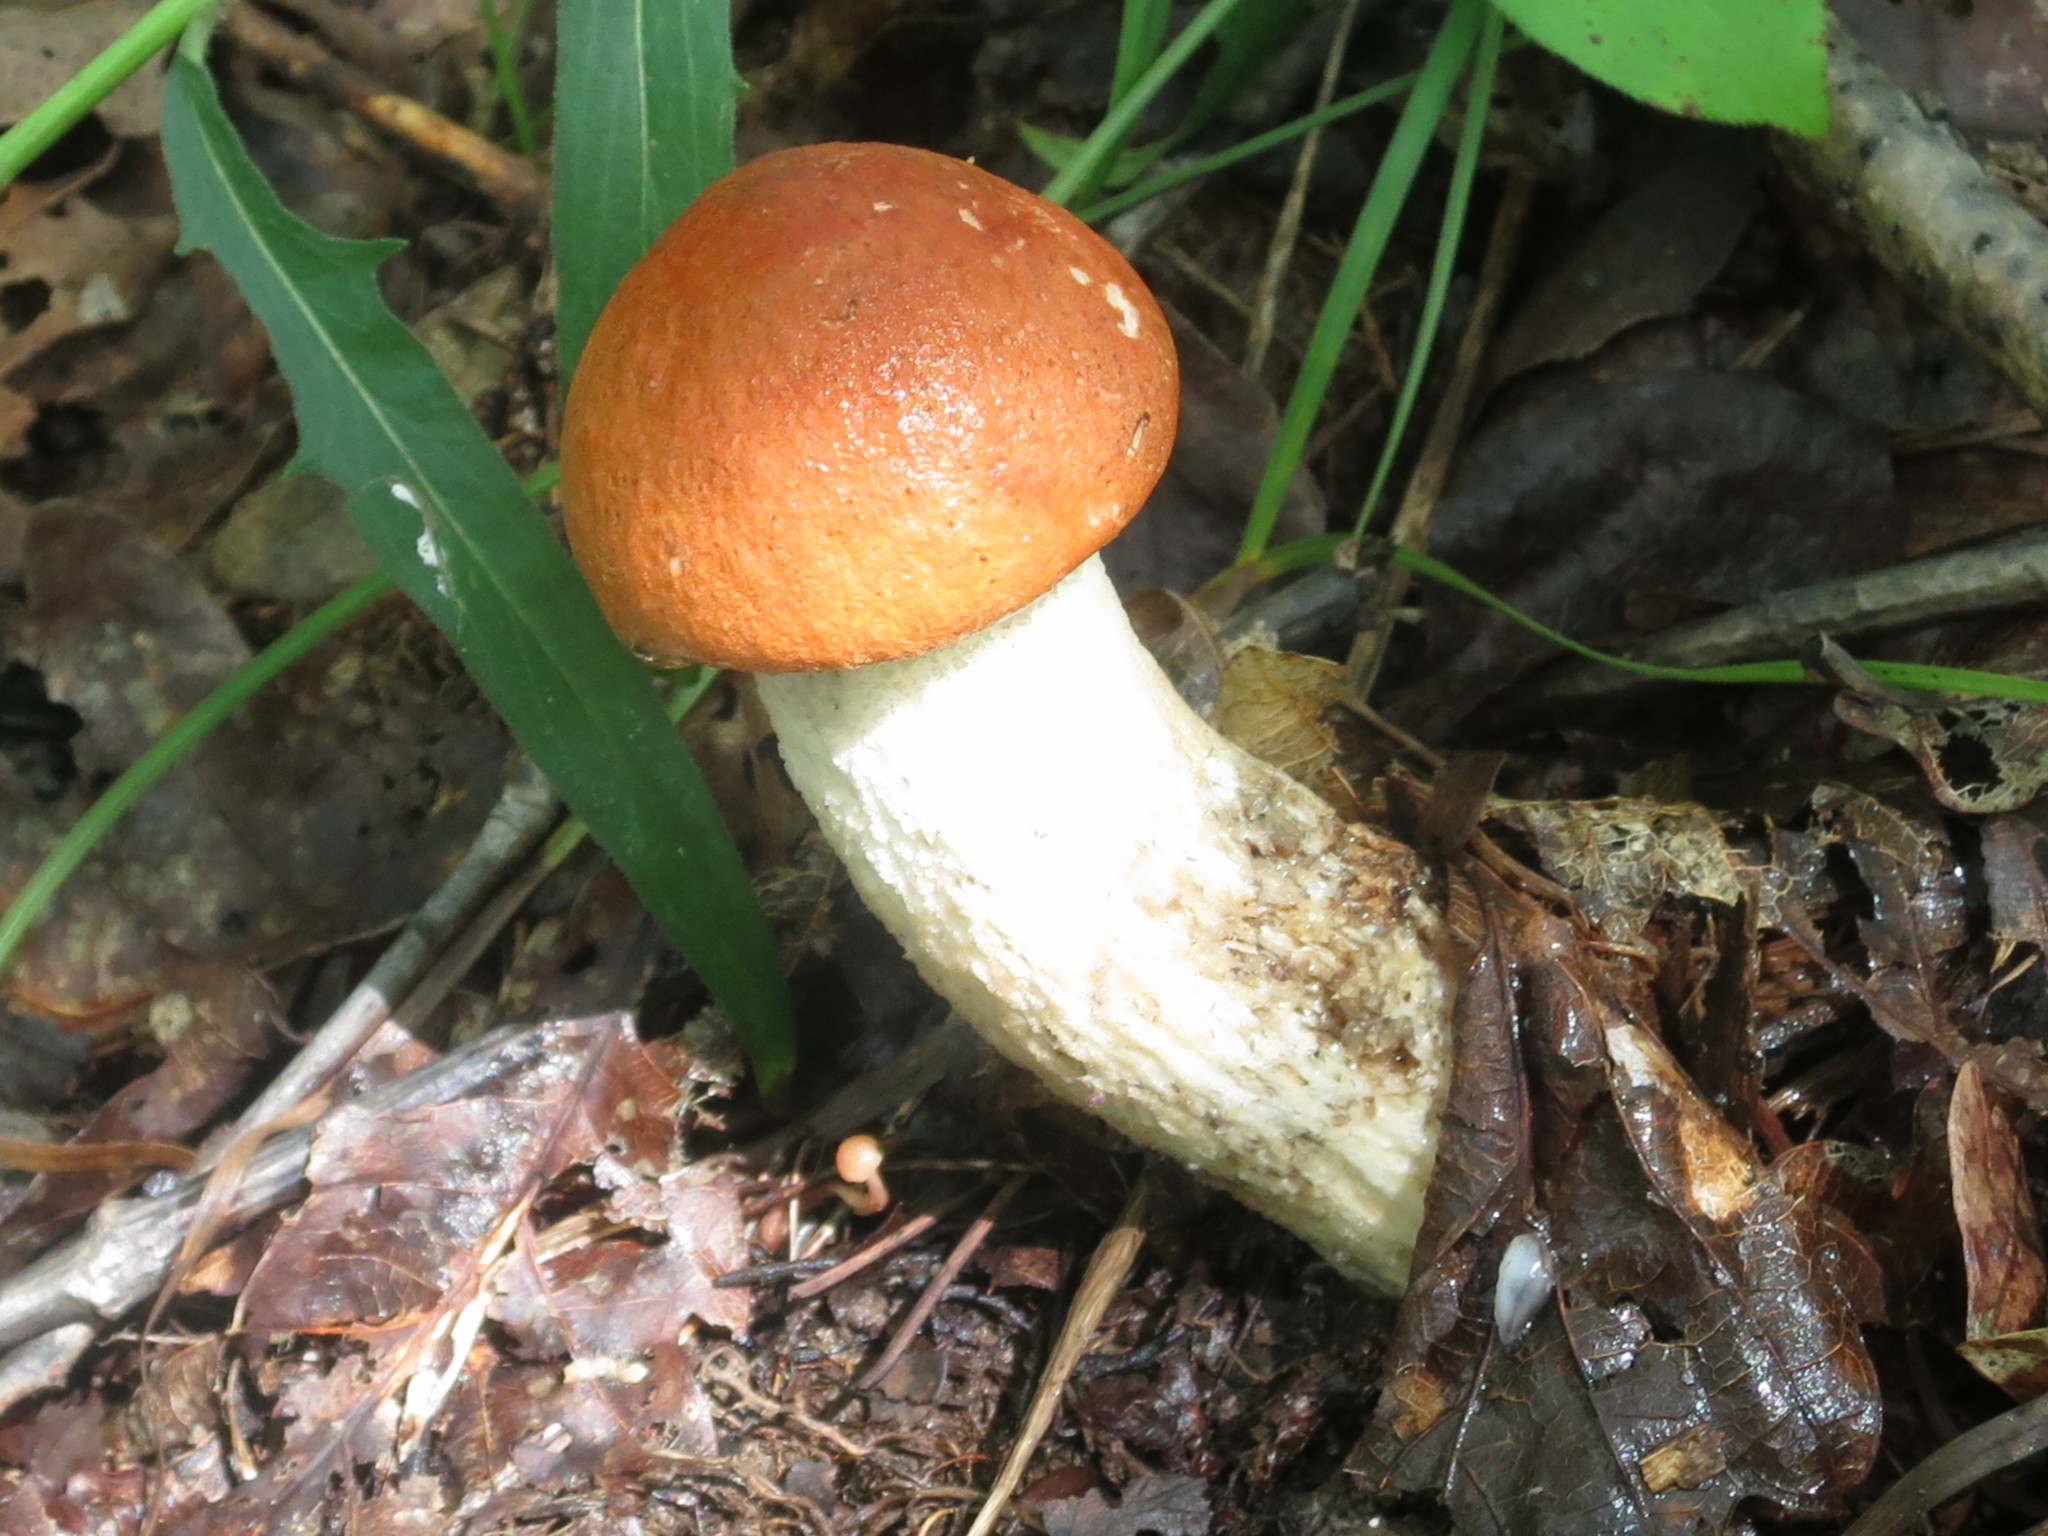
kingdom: Fungi
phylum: Basidiomycota
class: Agaricomycetes
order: Boletales
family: Boletaceae
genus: Leccinum
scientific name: Leccinum albostipitatum
